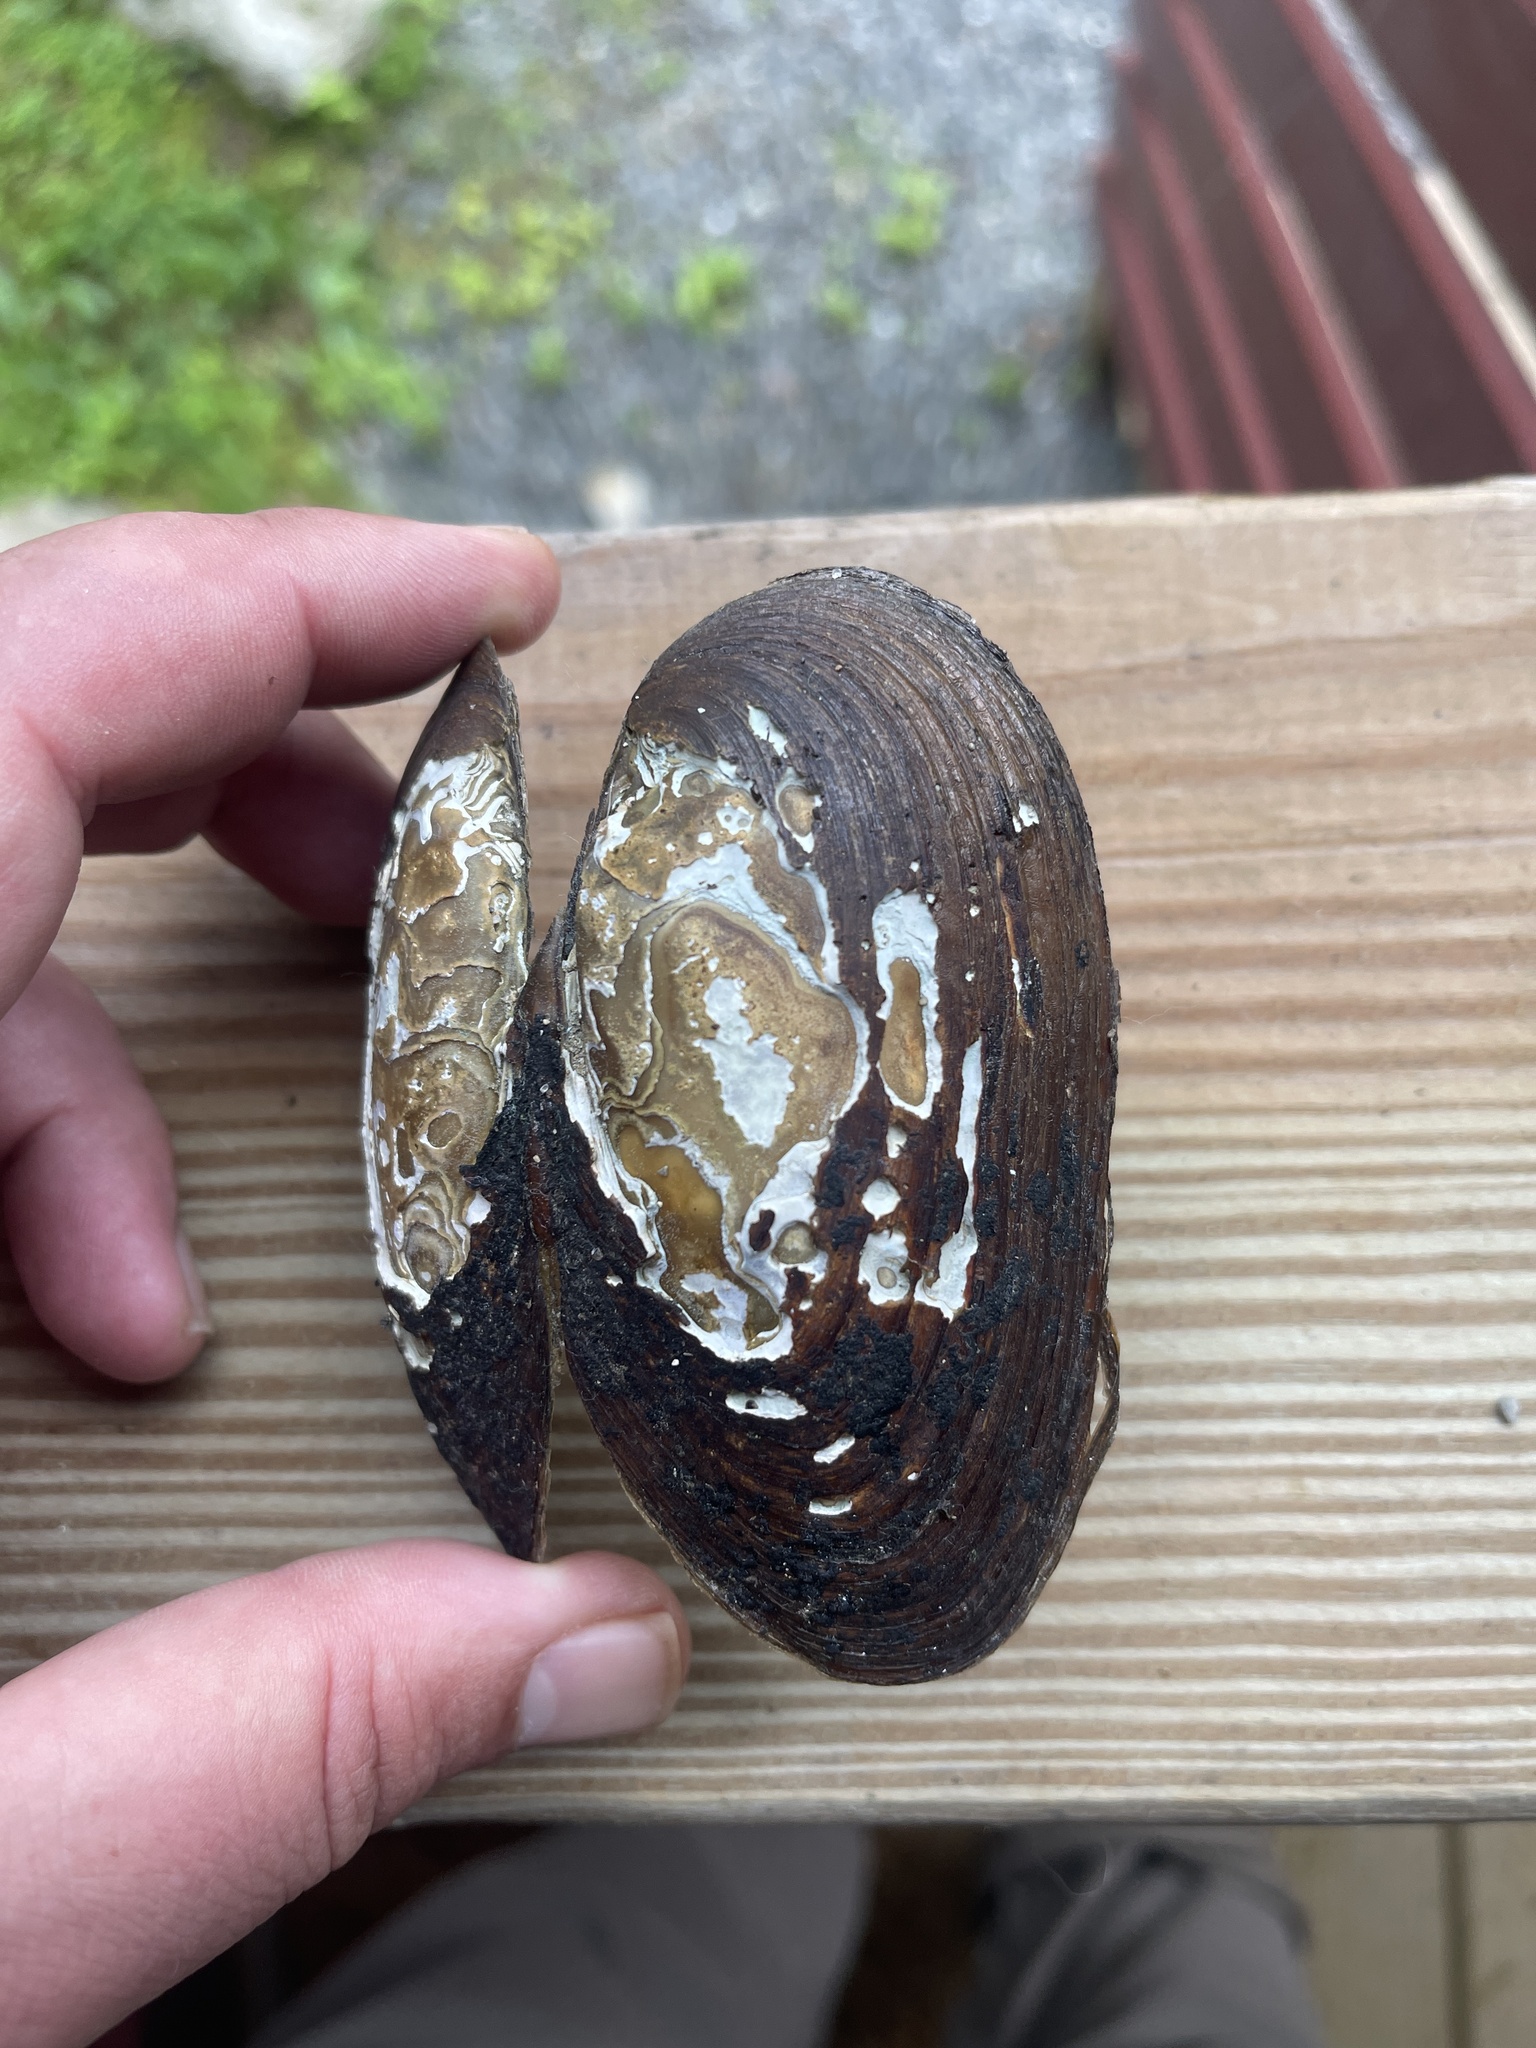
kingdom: Animalia
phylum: Mollusca
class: Bivalvia
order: Unionida
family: Unionidae
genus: Elliptio
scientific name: Elliptio complanata
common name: Eastern elliptio
